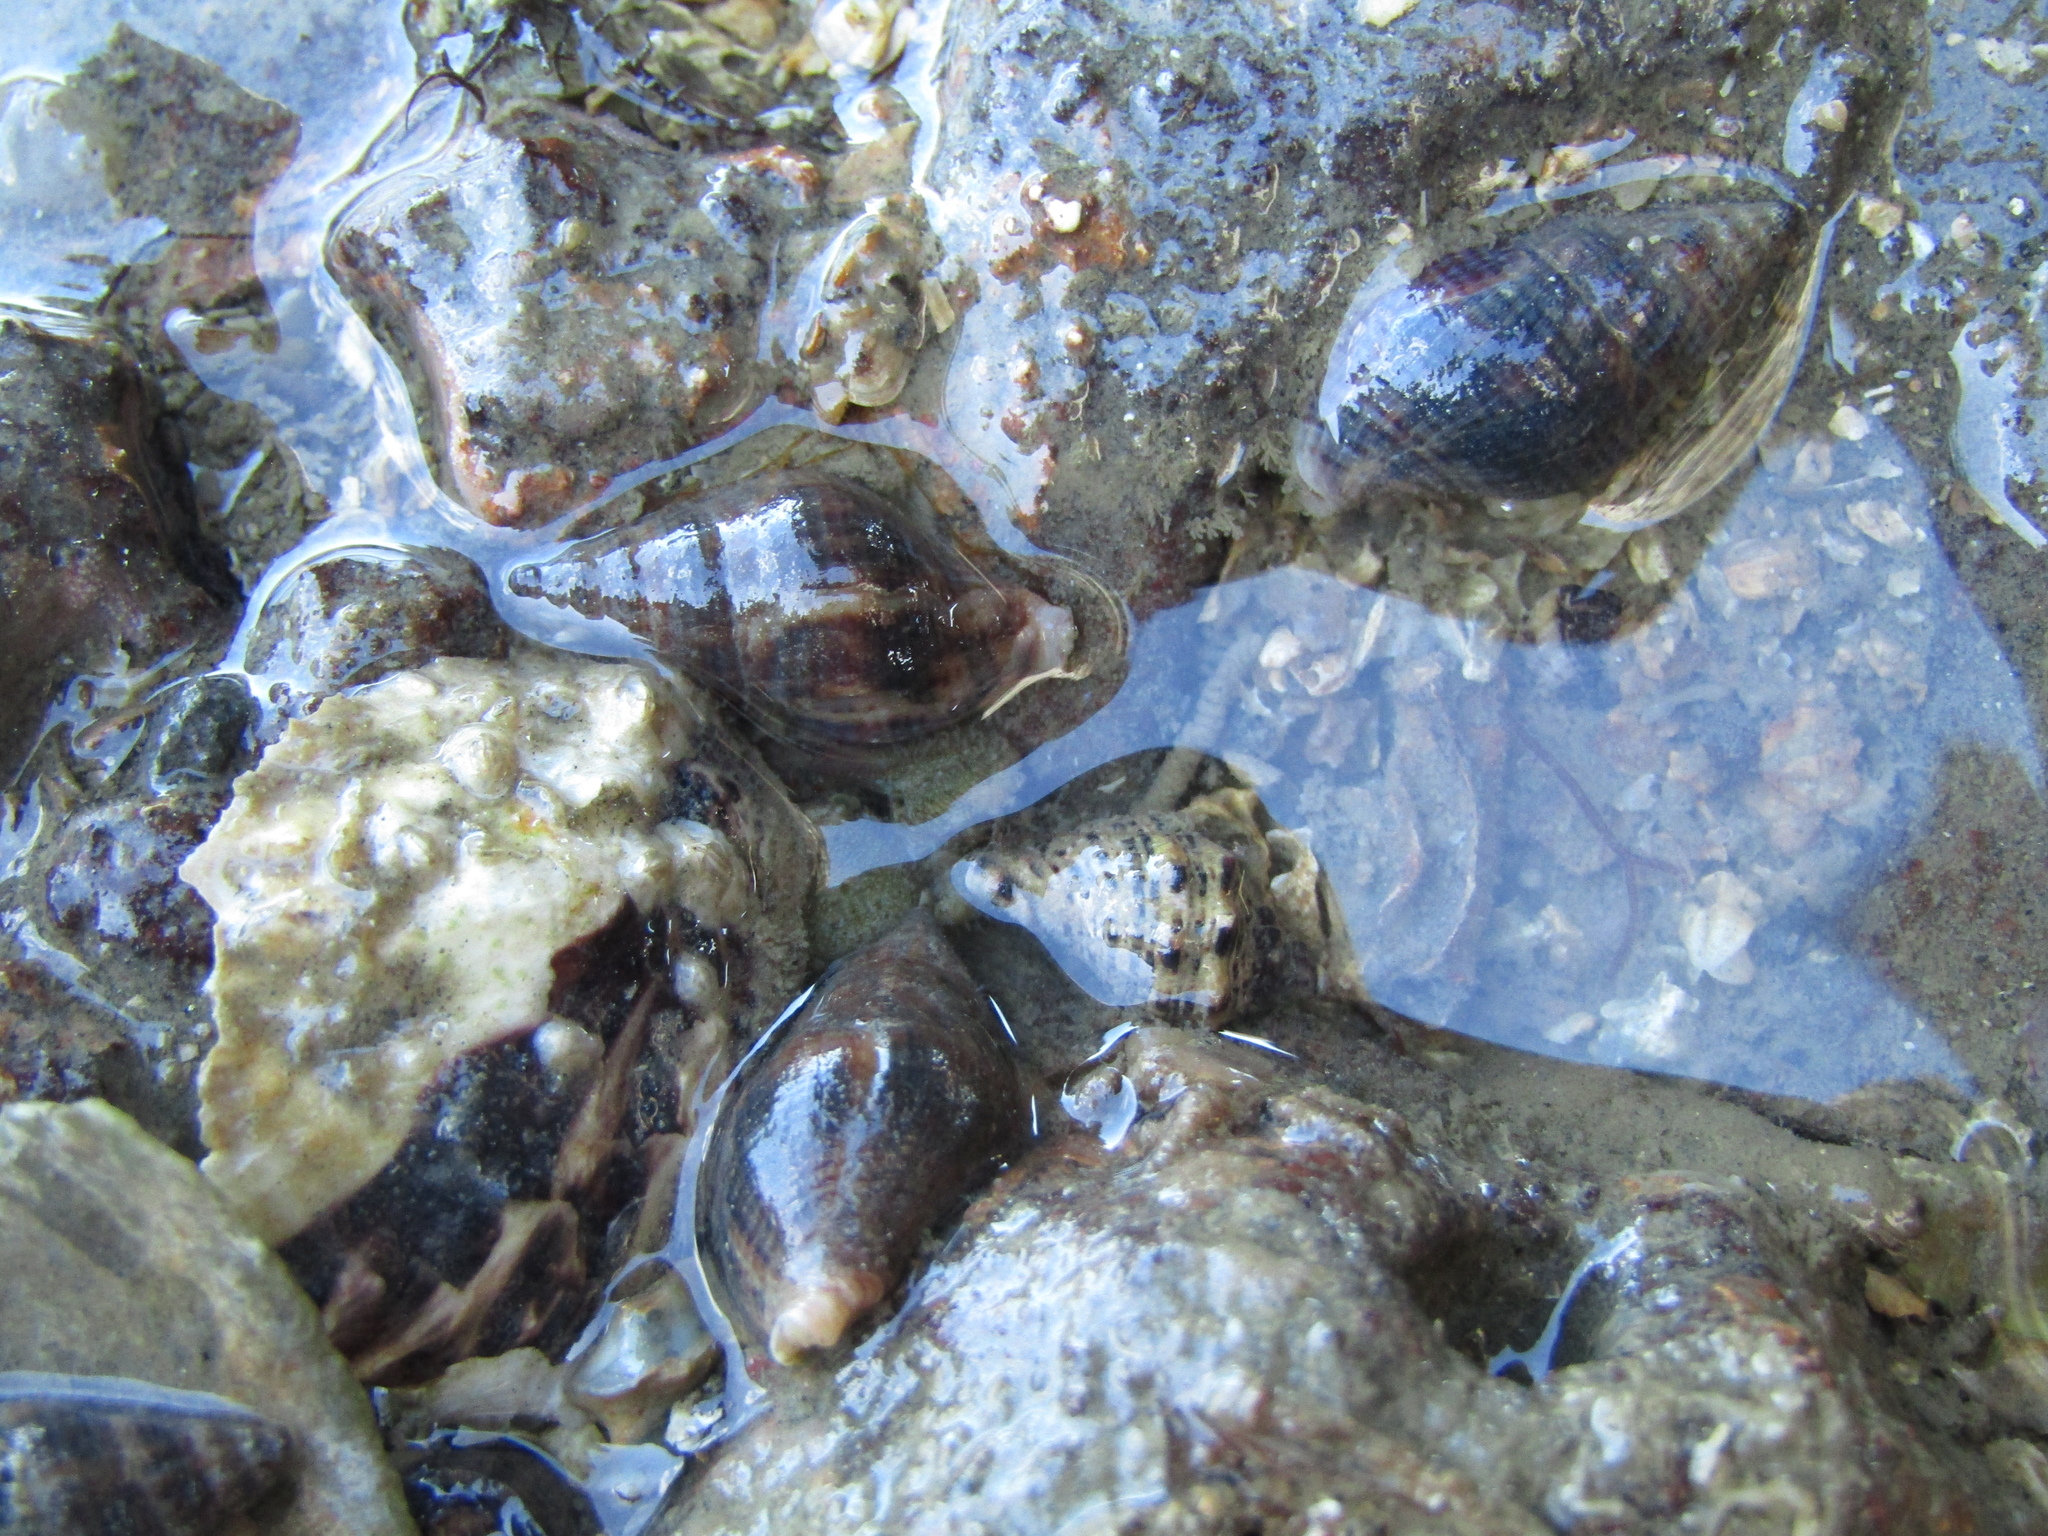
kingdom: Animalia
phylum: Mollusca
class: Gastropoda
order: Neogastropoda
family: Tudiclidae
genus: Buccinulum
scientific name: Buccinulum vittatum
